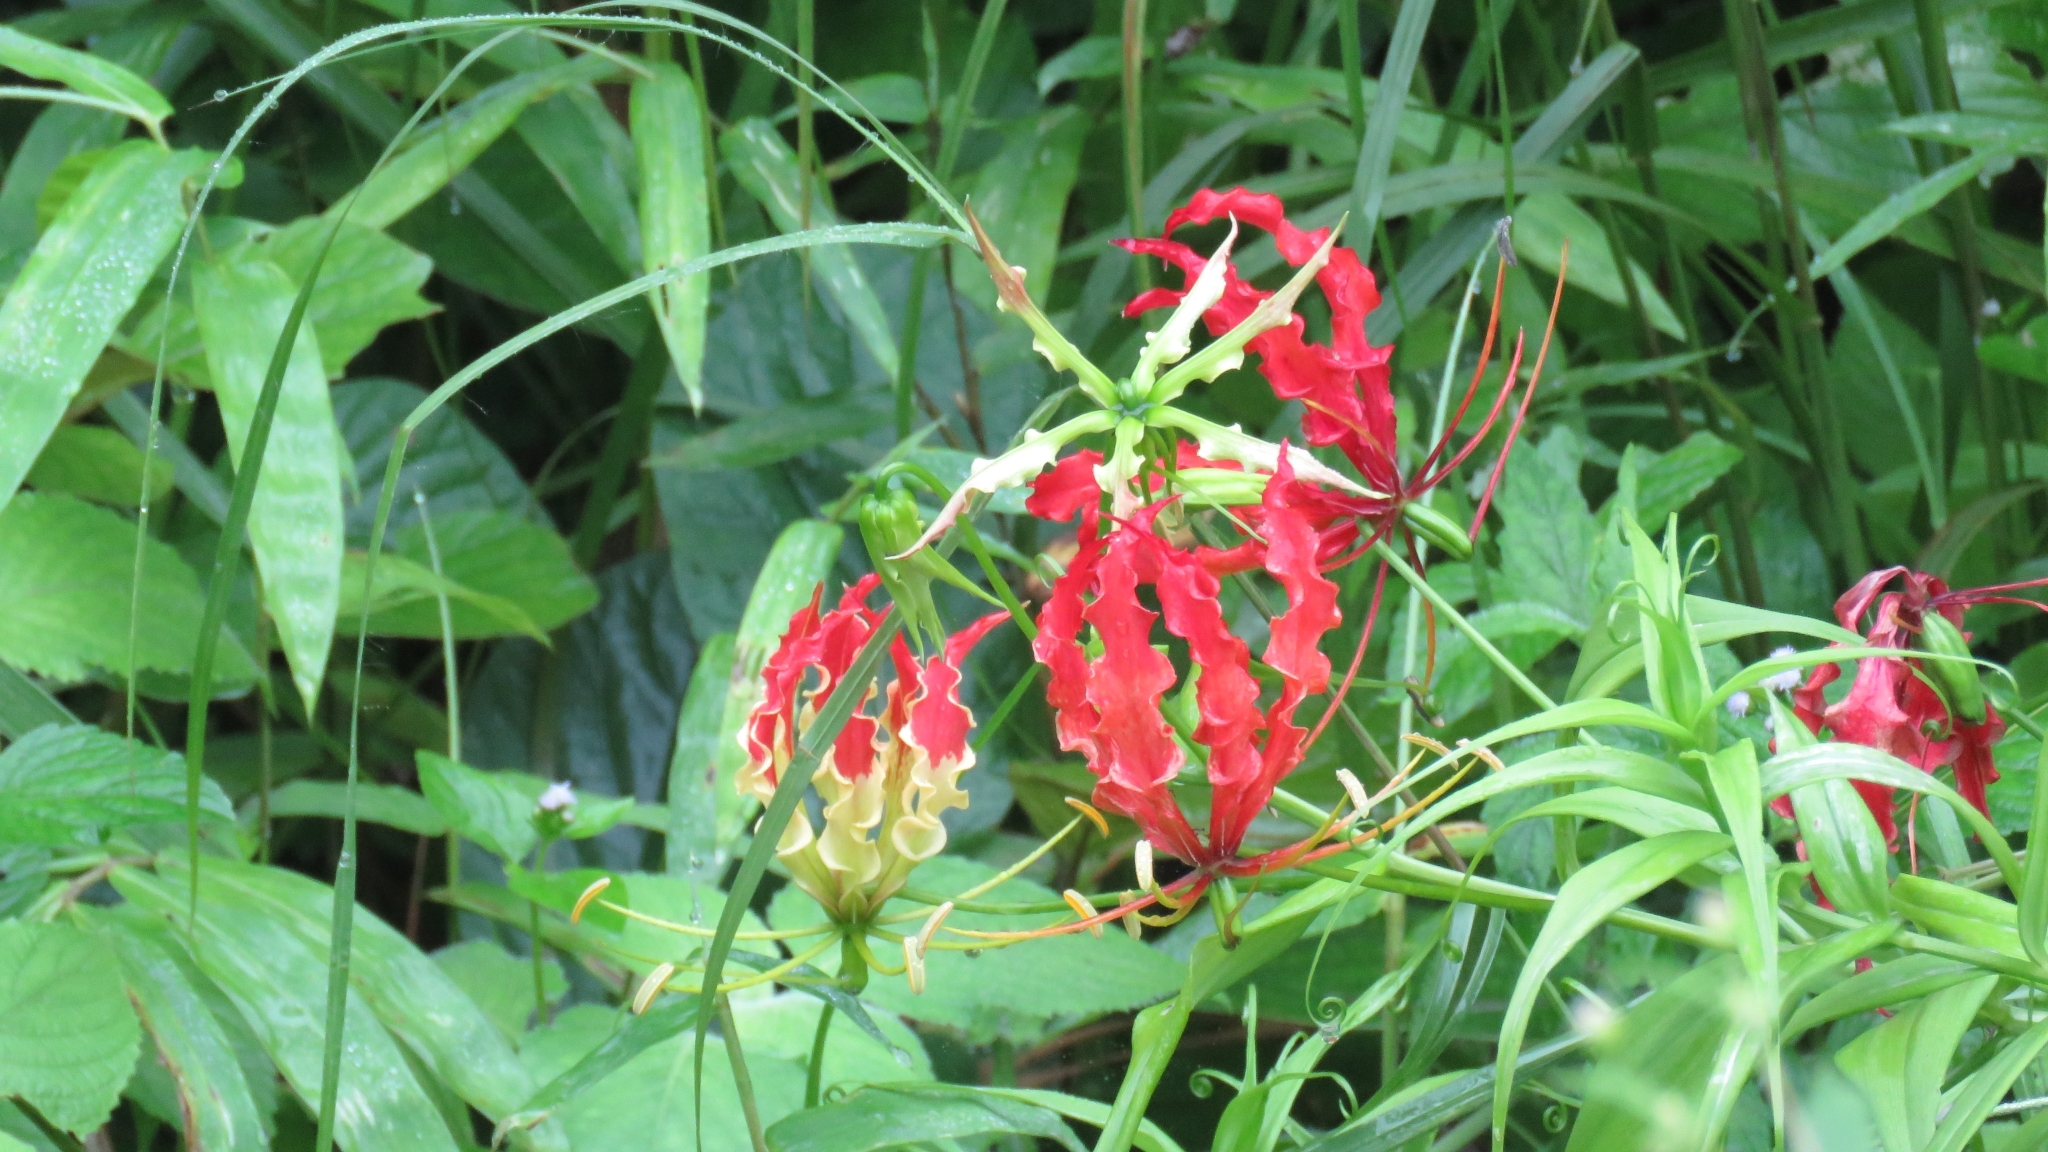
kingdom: Plantae
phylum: Tracheophyta
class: Liliopsida
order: Liliales
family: Colchicaceae
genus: Gloriosa
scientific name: Gloriosa superba
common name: Flame lily
